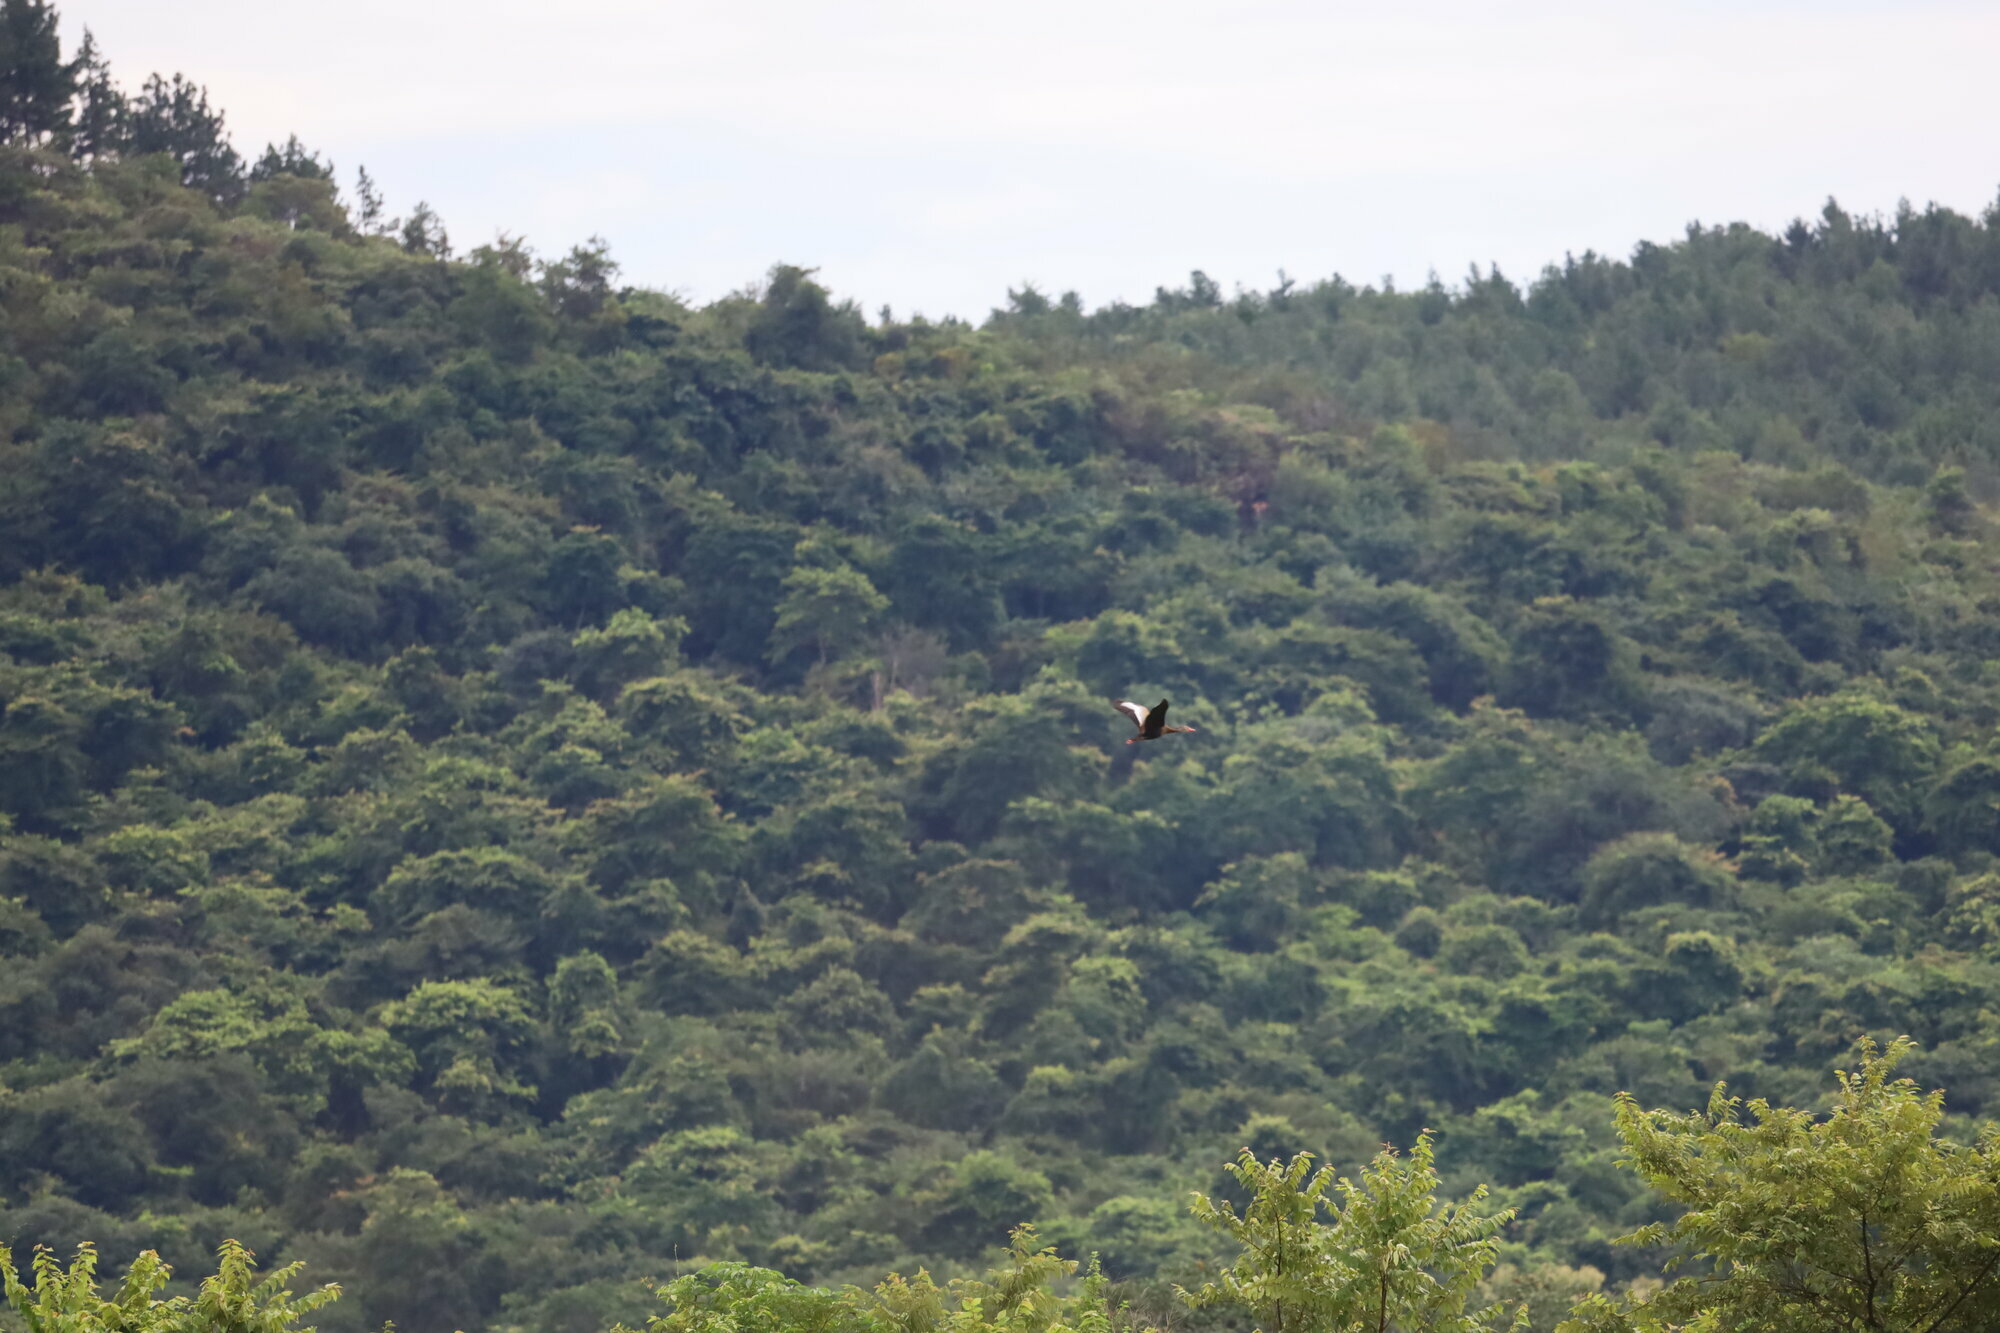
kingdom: Animalia
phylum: Chordata
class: Aves
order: Anseriformes
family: Anatidae
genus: Dendrocygna
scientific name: Dendrocygna autumnalis
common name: Black-bellied whistling duck
